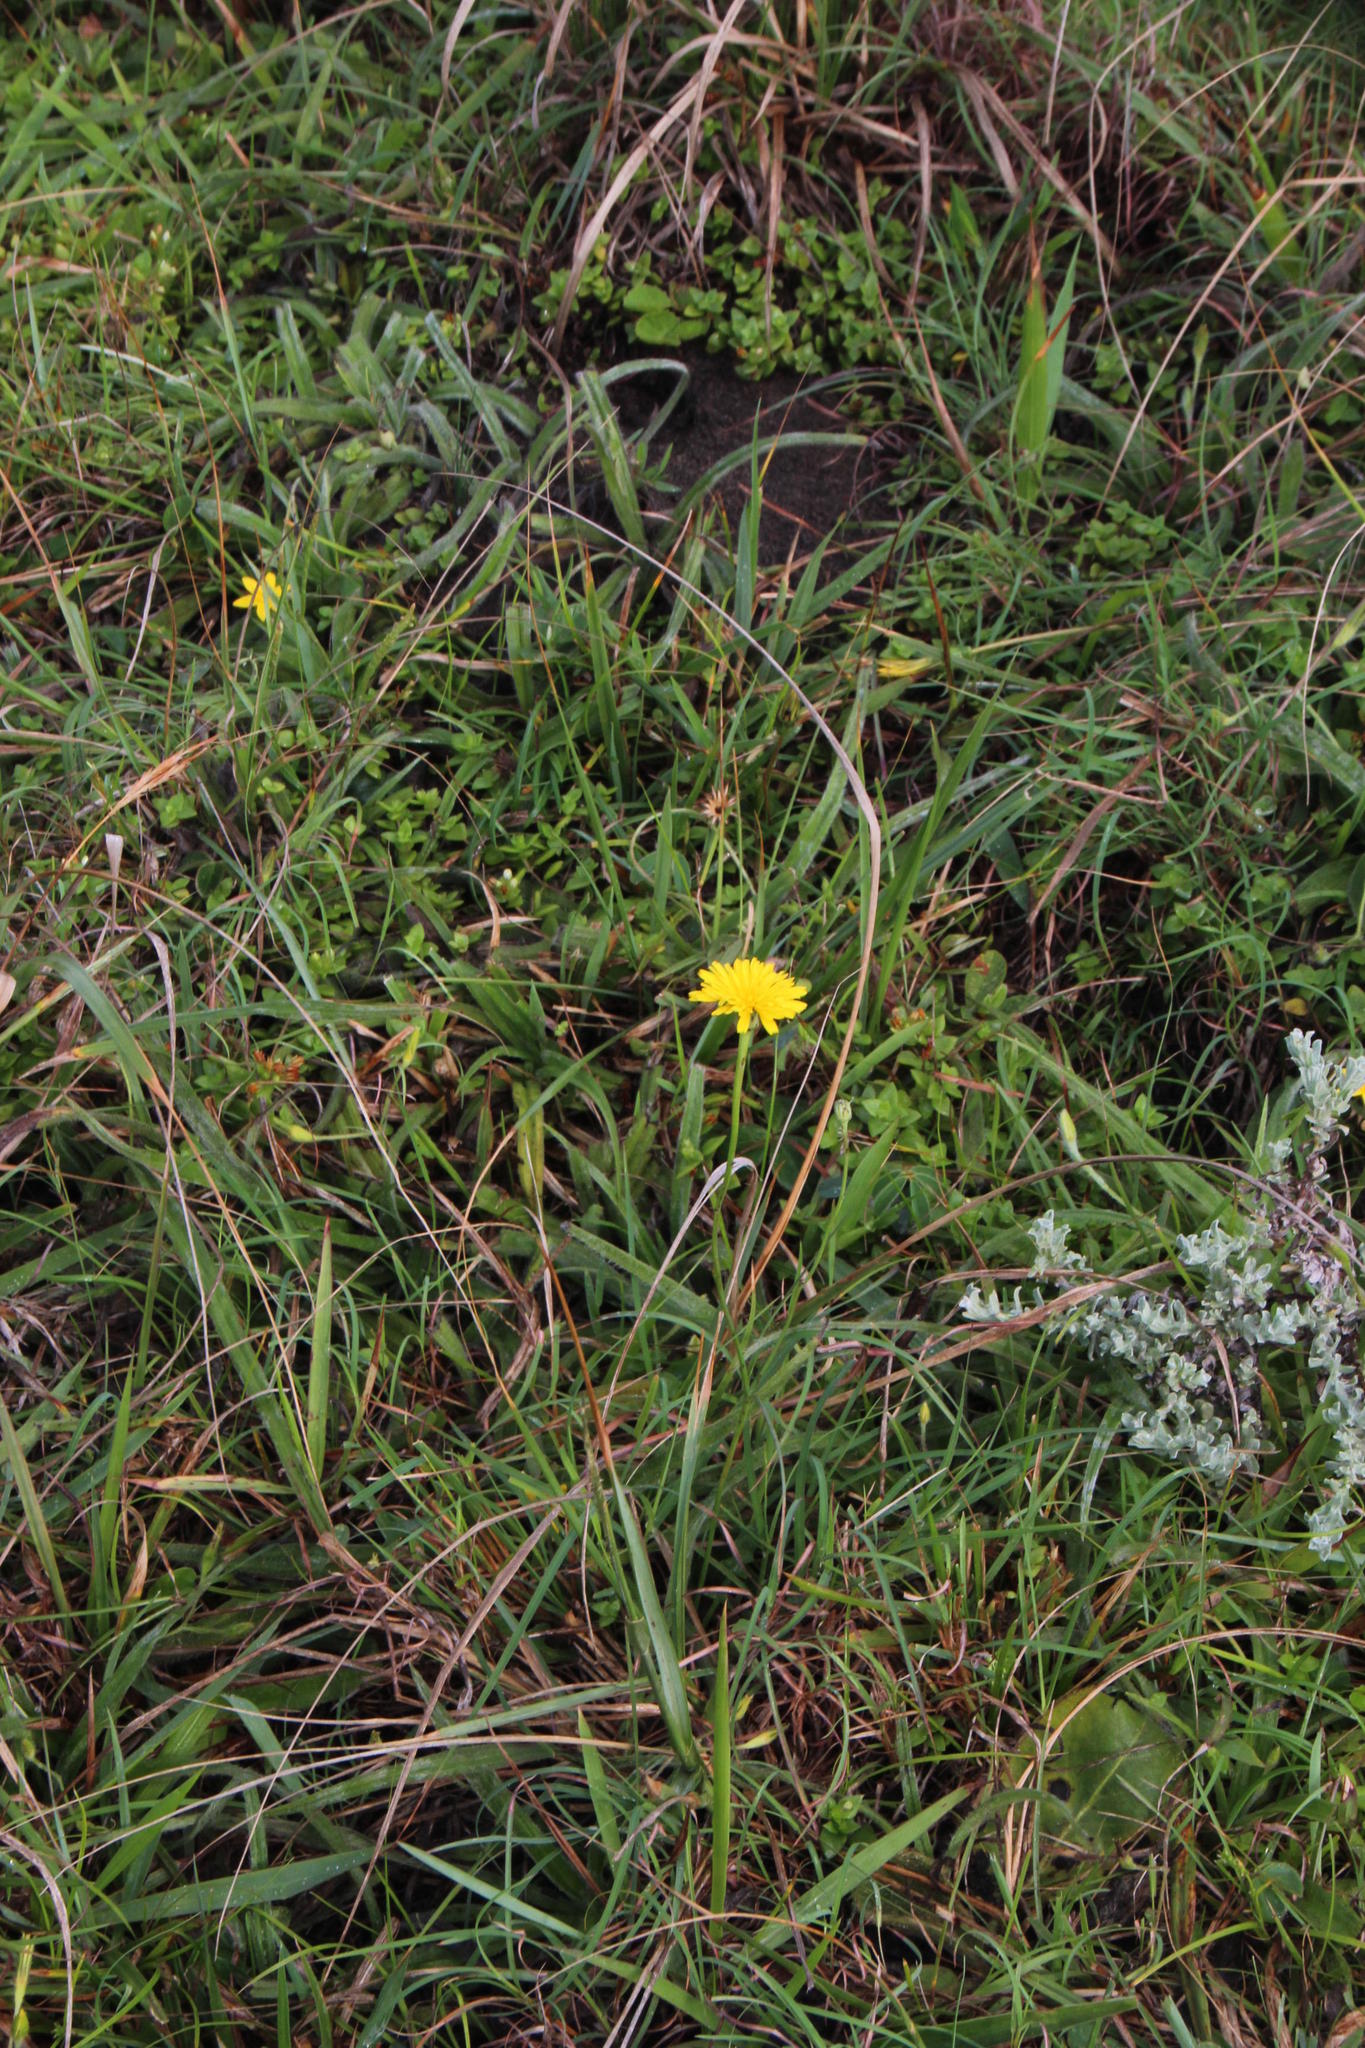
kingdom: Plantae
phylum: Tracheophyta
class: Magnoliopsida
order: Asterales
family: Asteraceae
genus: Hypochaeris
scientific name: Hypochaeris radicata
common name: Flatweed
